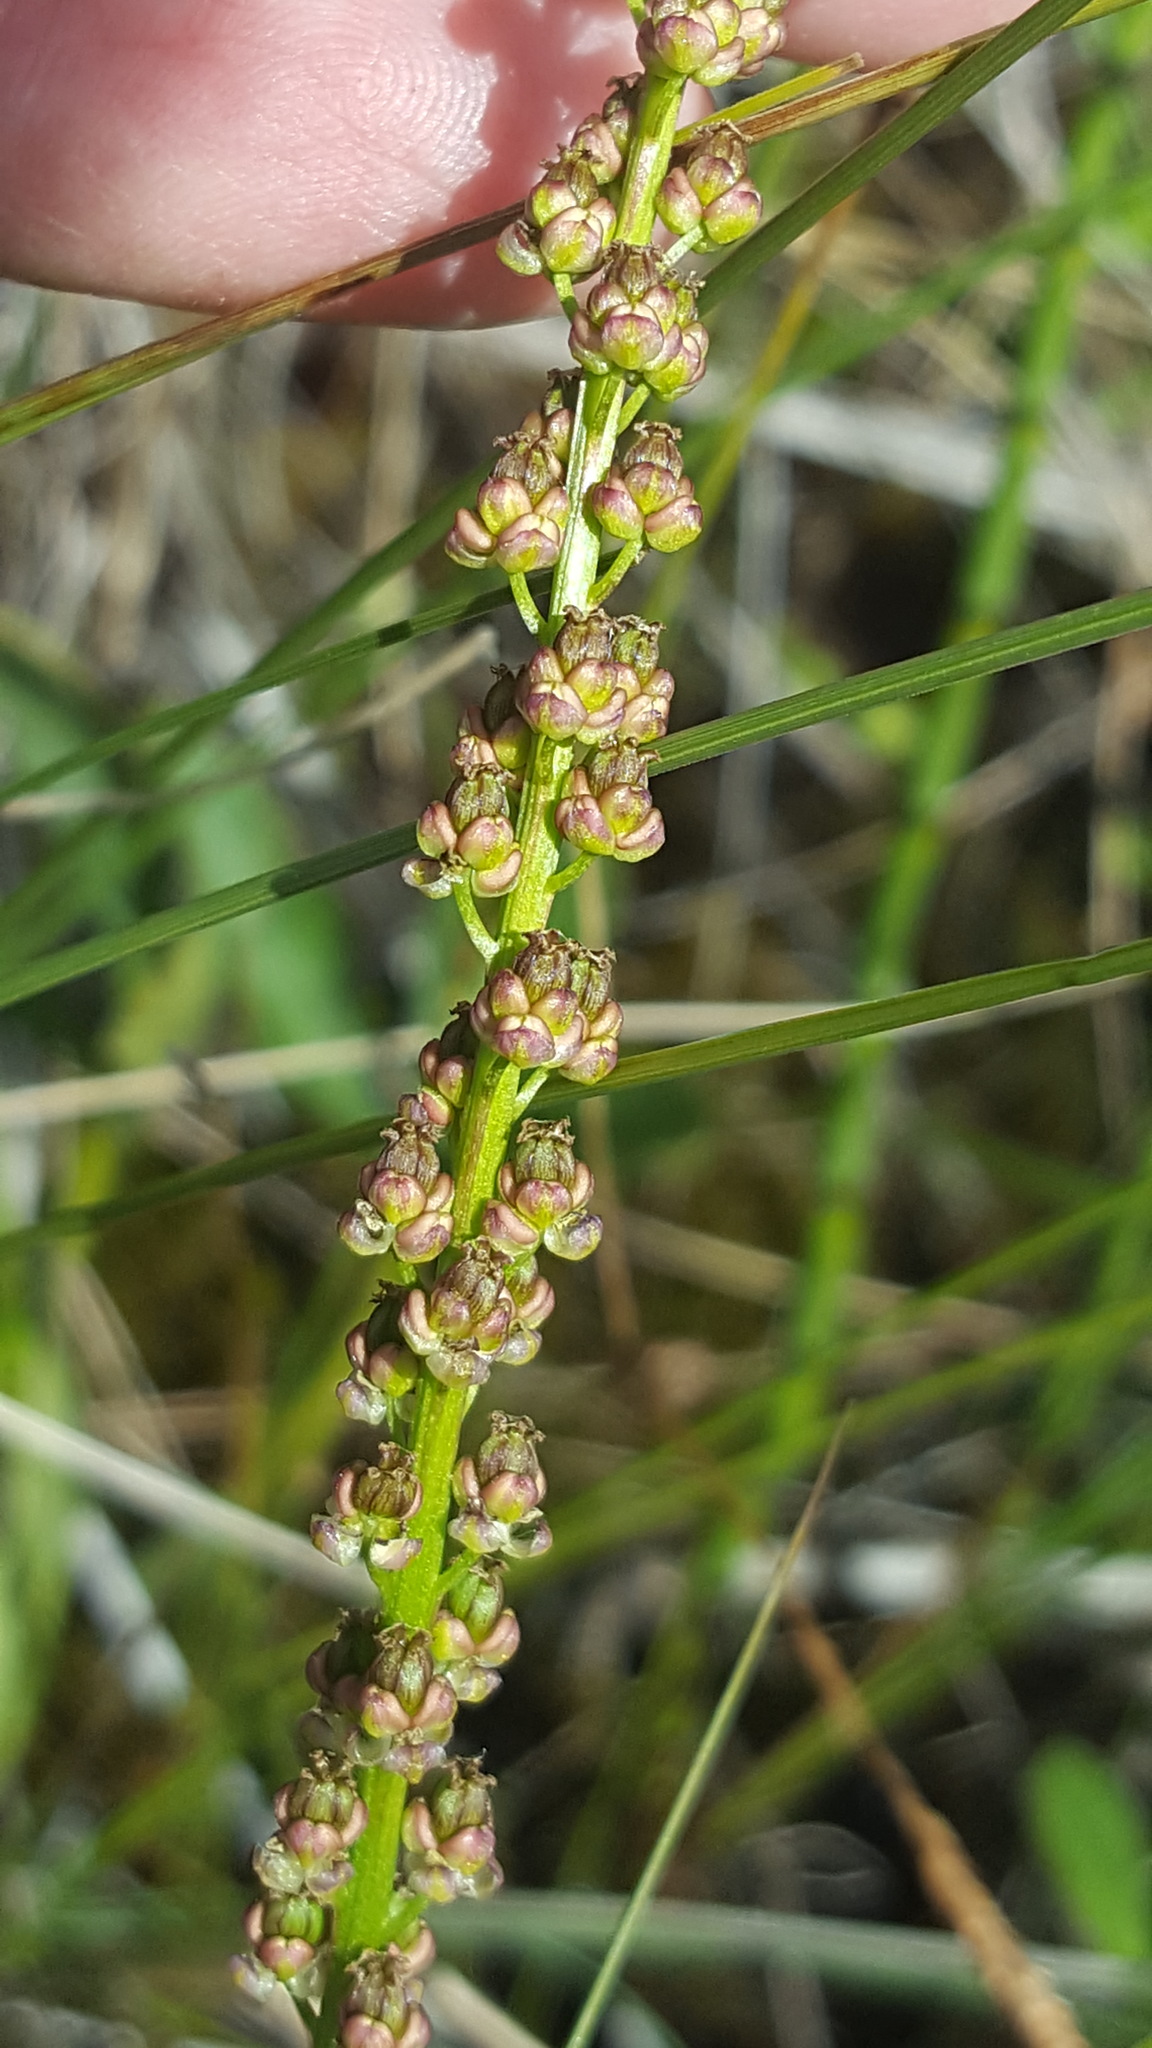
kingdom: Plantae
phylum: Tracheophyta
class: Liliopsida
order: Alismatales
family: Juncaginaceae
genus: Triglochin
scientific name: Triglochin maritima
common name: Sea arrowgrass
